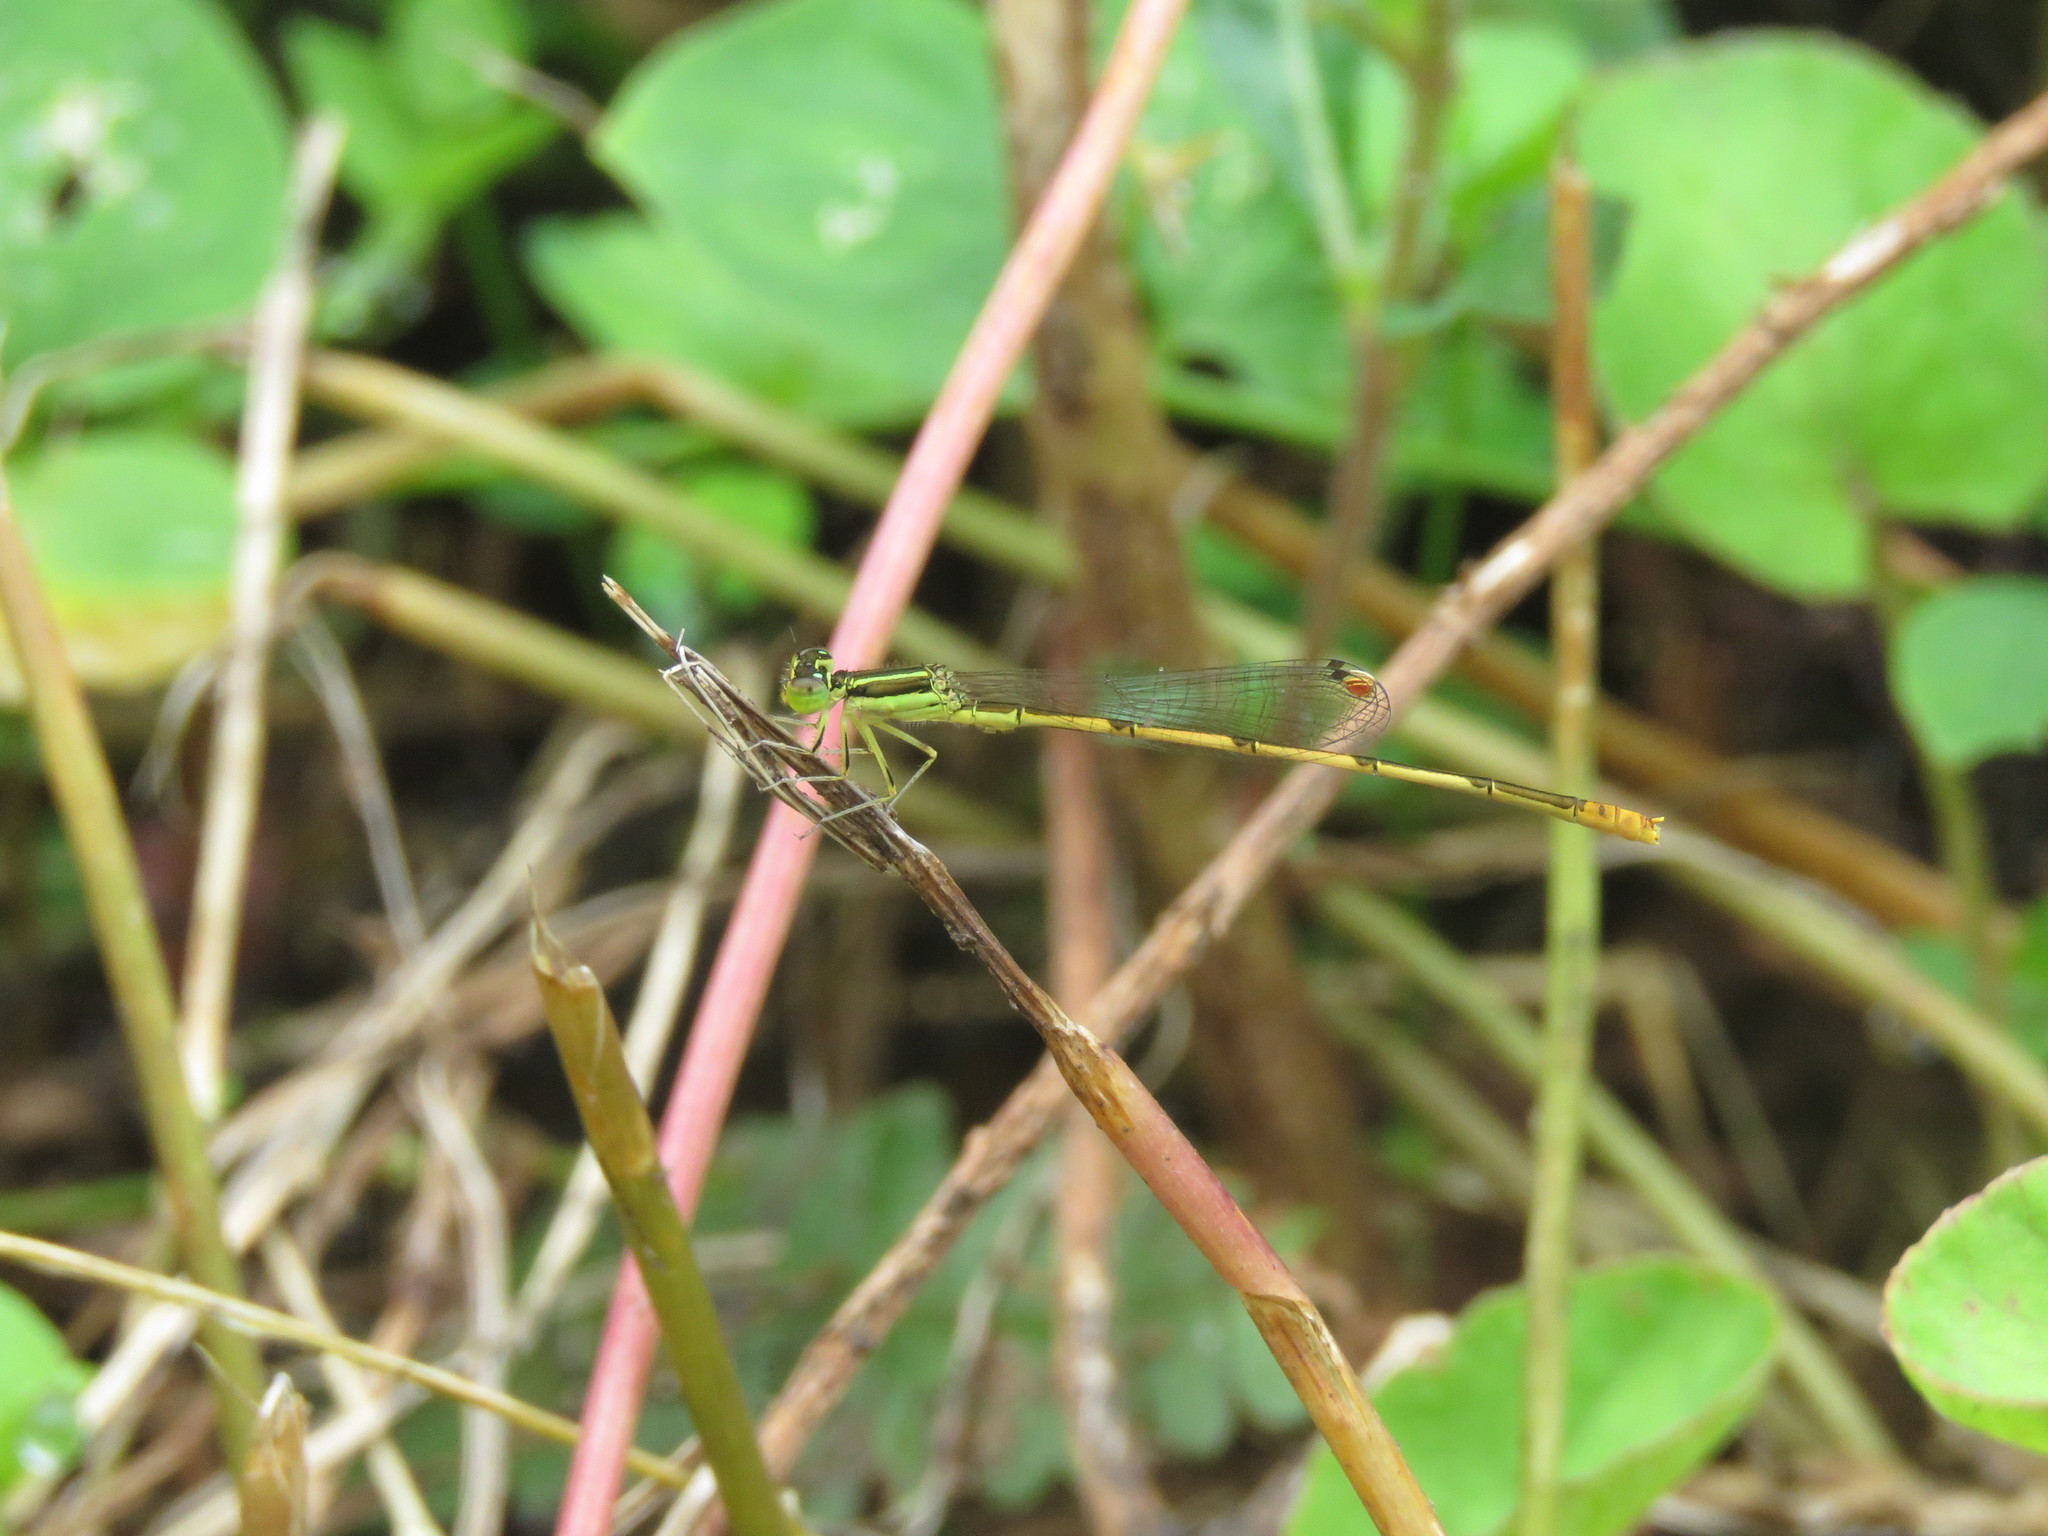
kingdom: Animalia
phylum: Arthropoda
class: Insecta
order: Odonata
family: Coenagrionidae
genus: Ischnura
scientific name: Ischnura hastata
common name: Citrine forktail
